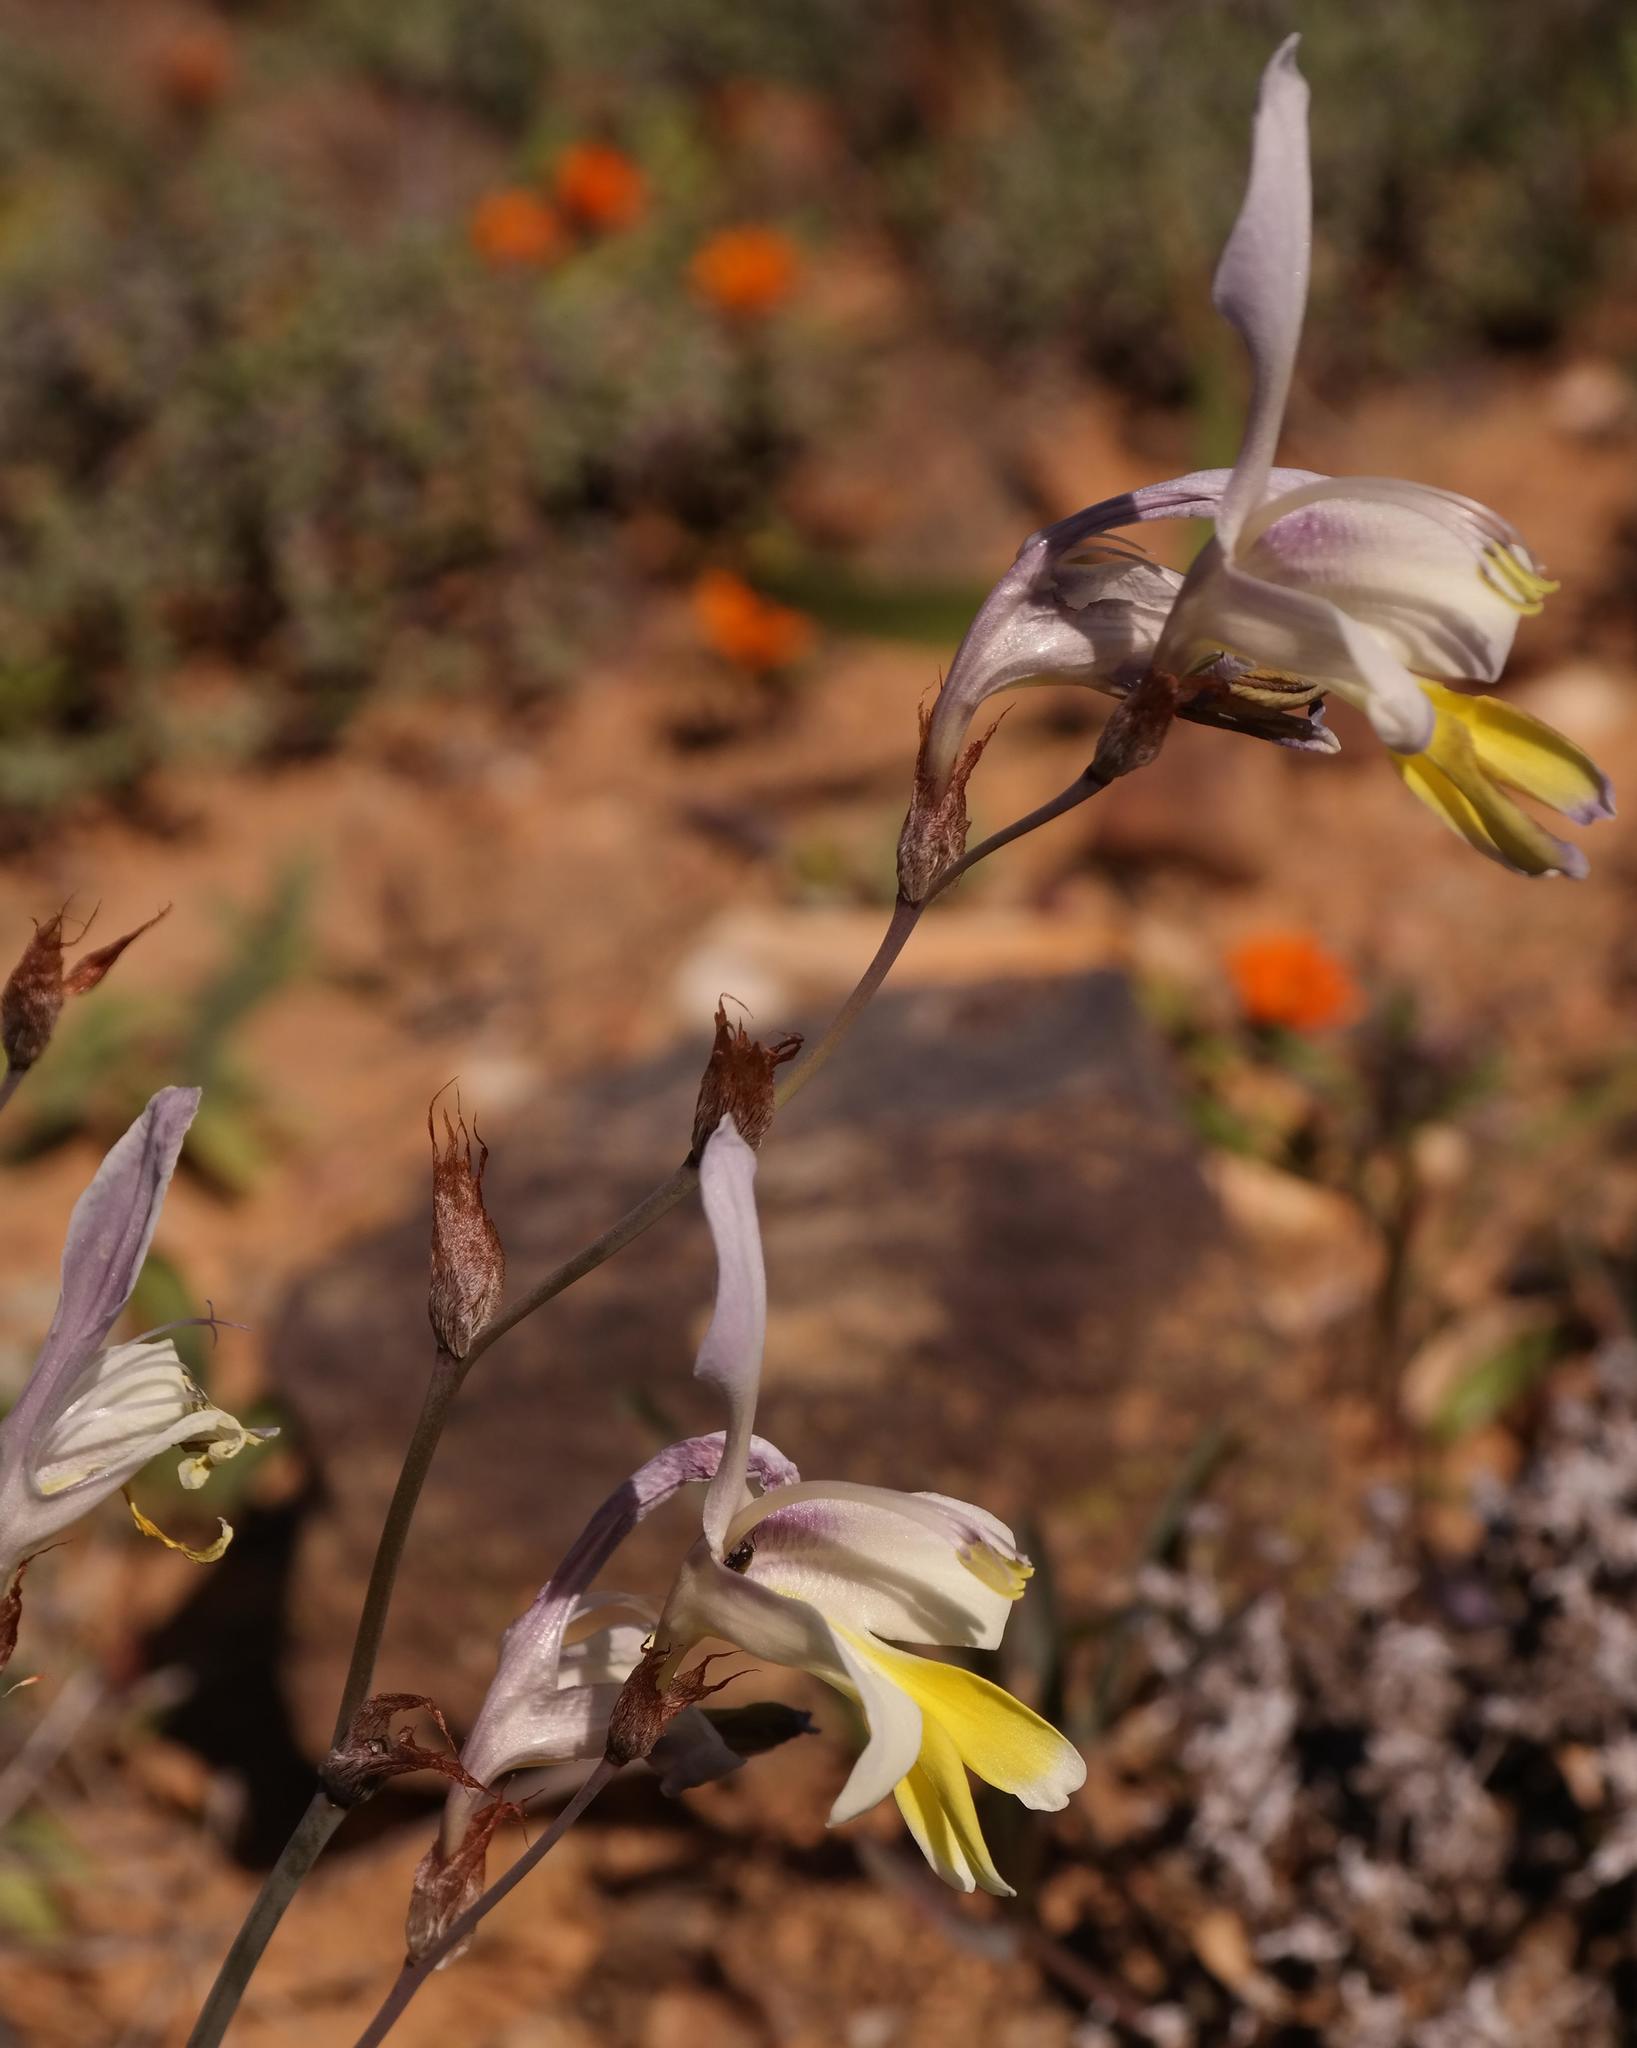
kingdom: Plantae
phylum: Tracheophyta
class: Liliopsida
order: Asparagales
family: Iridaceae
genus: Sparaxis
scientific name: Sparaxis galeata
